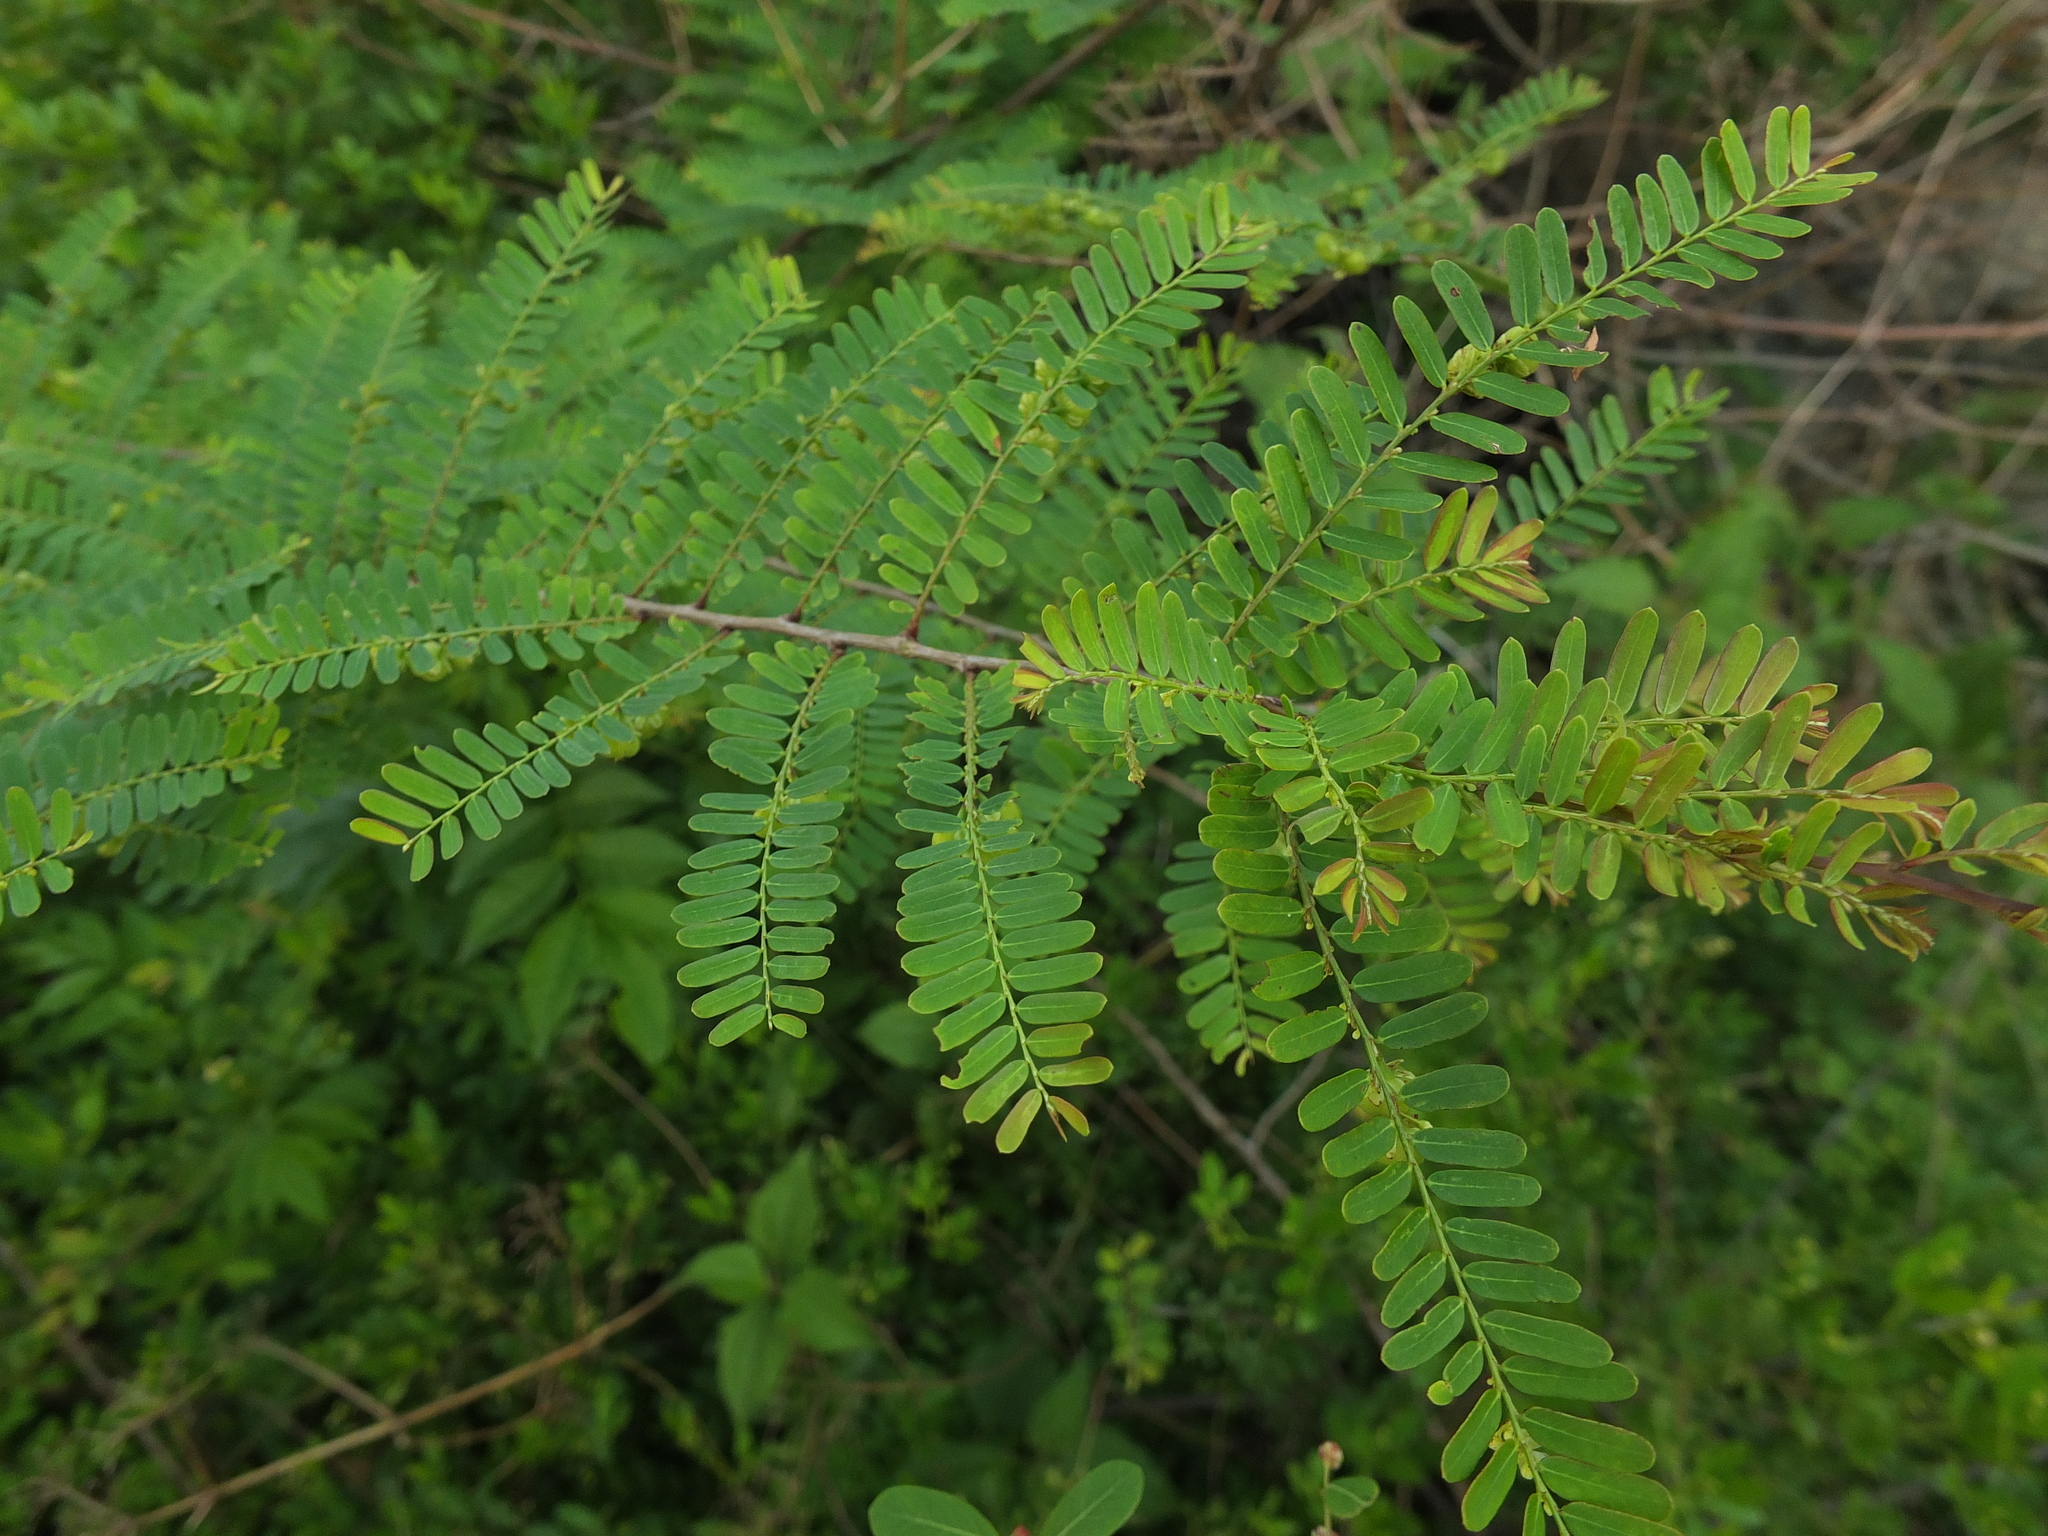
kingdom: Plantae
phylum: Tracheophyta
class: Magnoliopsida
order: Malpighiales
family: Phyllanthaceae
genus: Phyllanthus
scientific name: Phyllanthus lawii
